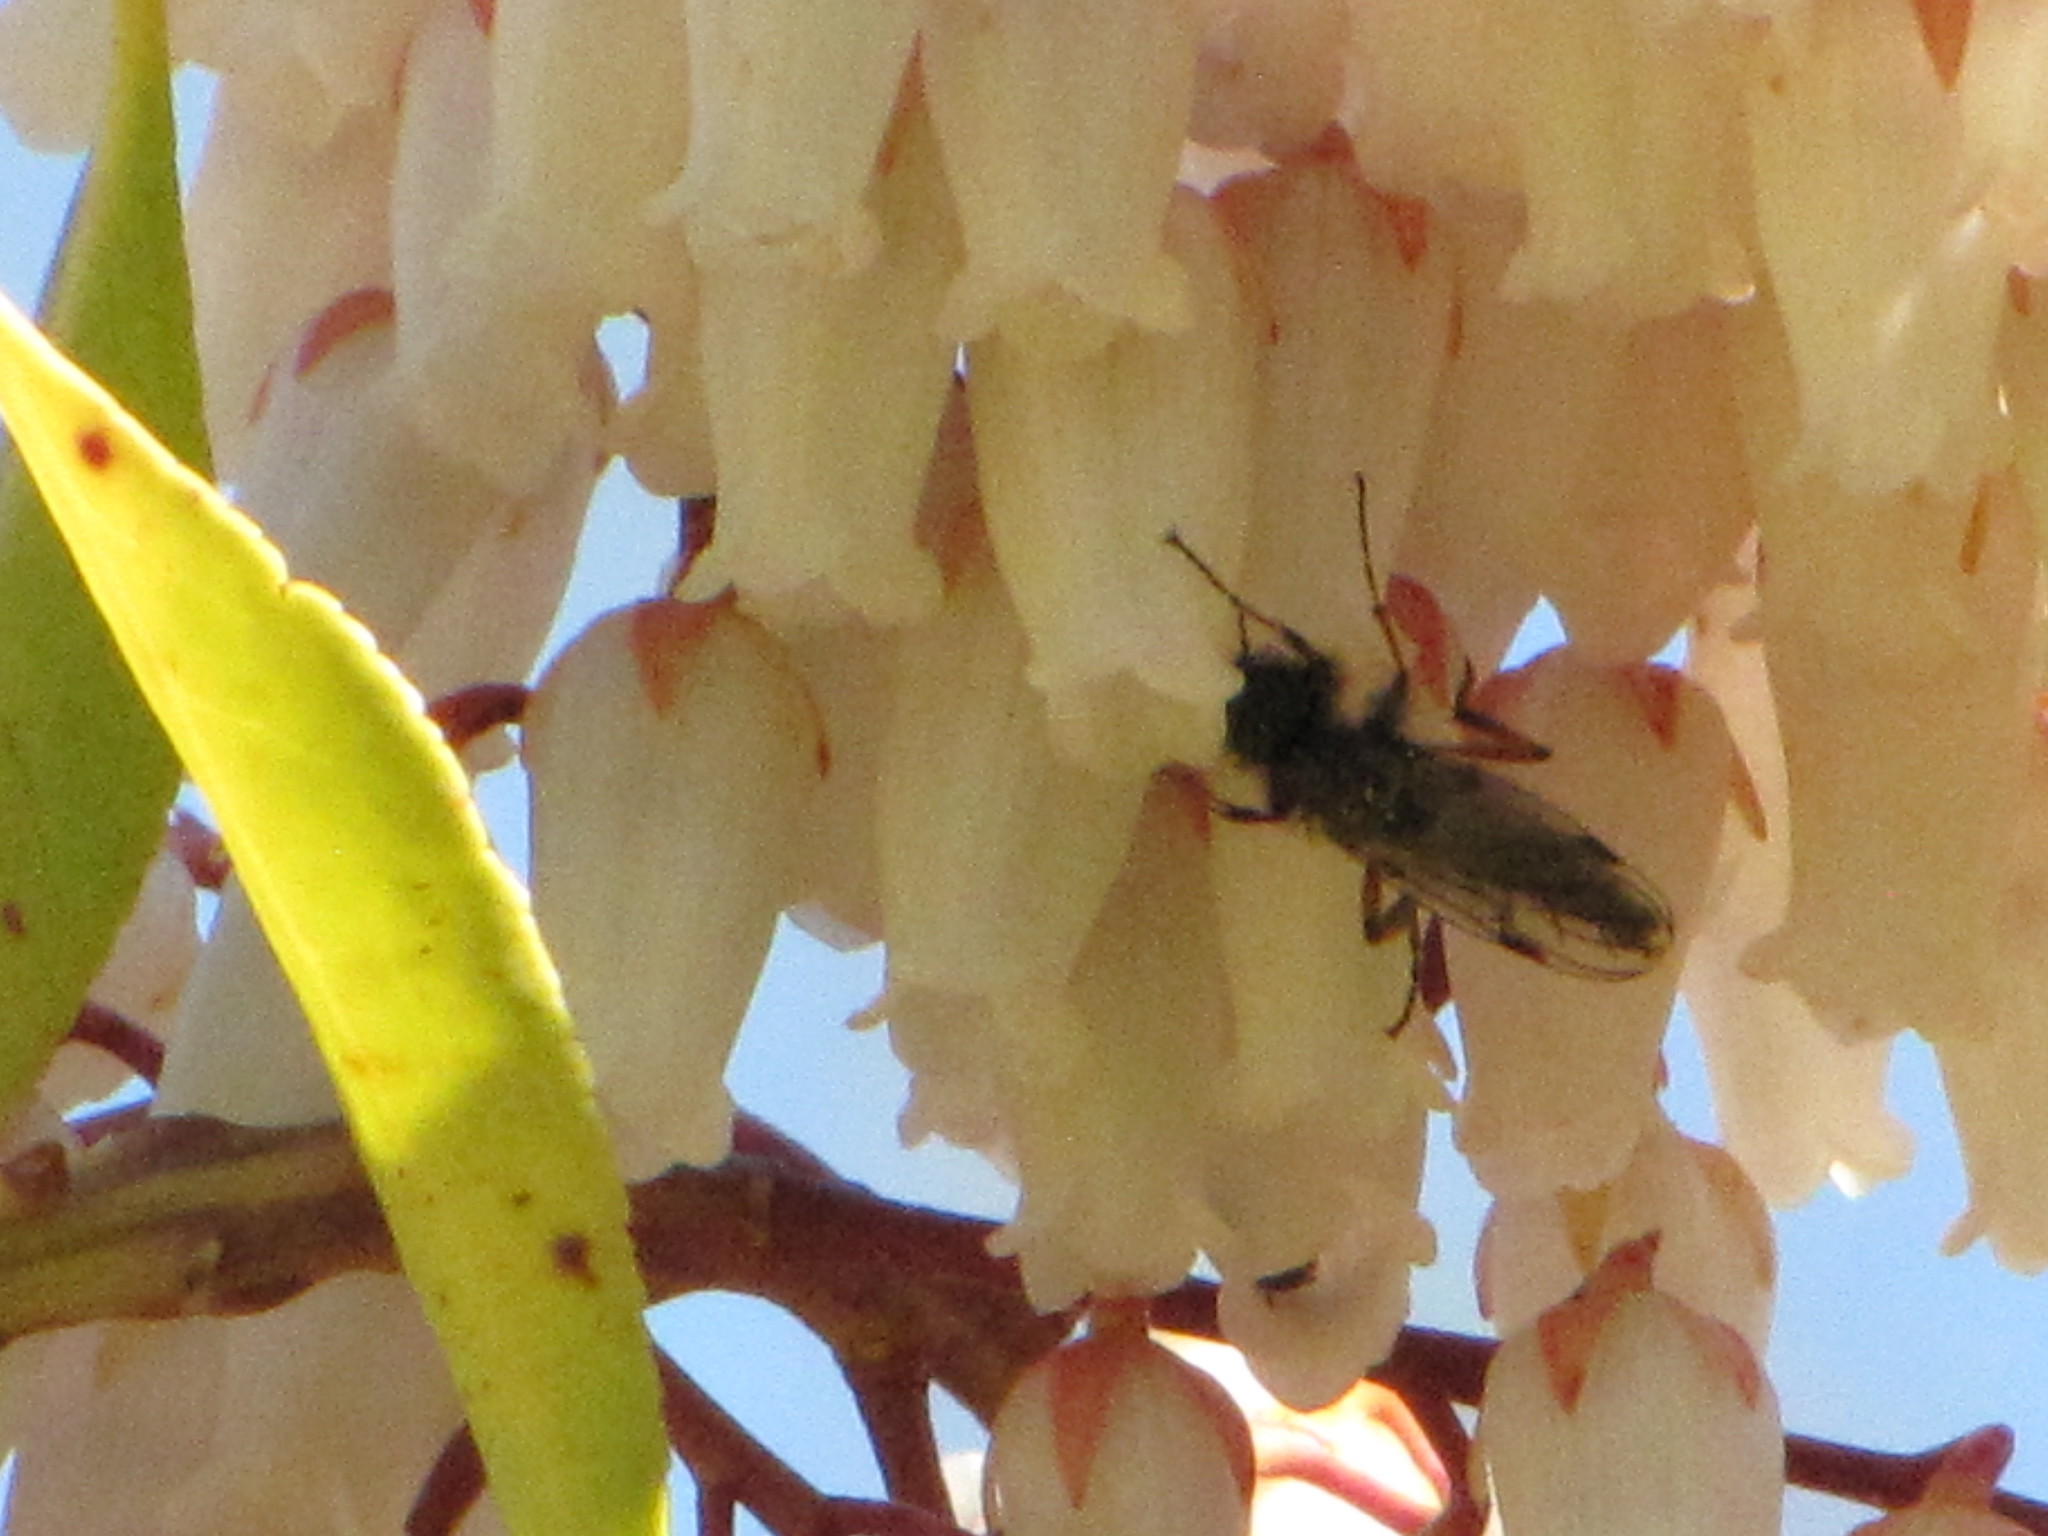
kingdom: Animalia
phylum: Arthropoda
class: Insecta
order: Diptera
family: Bibionidae
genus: Bibio
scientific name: Bibio
